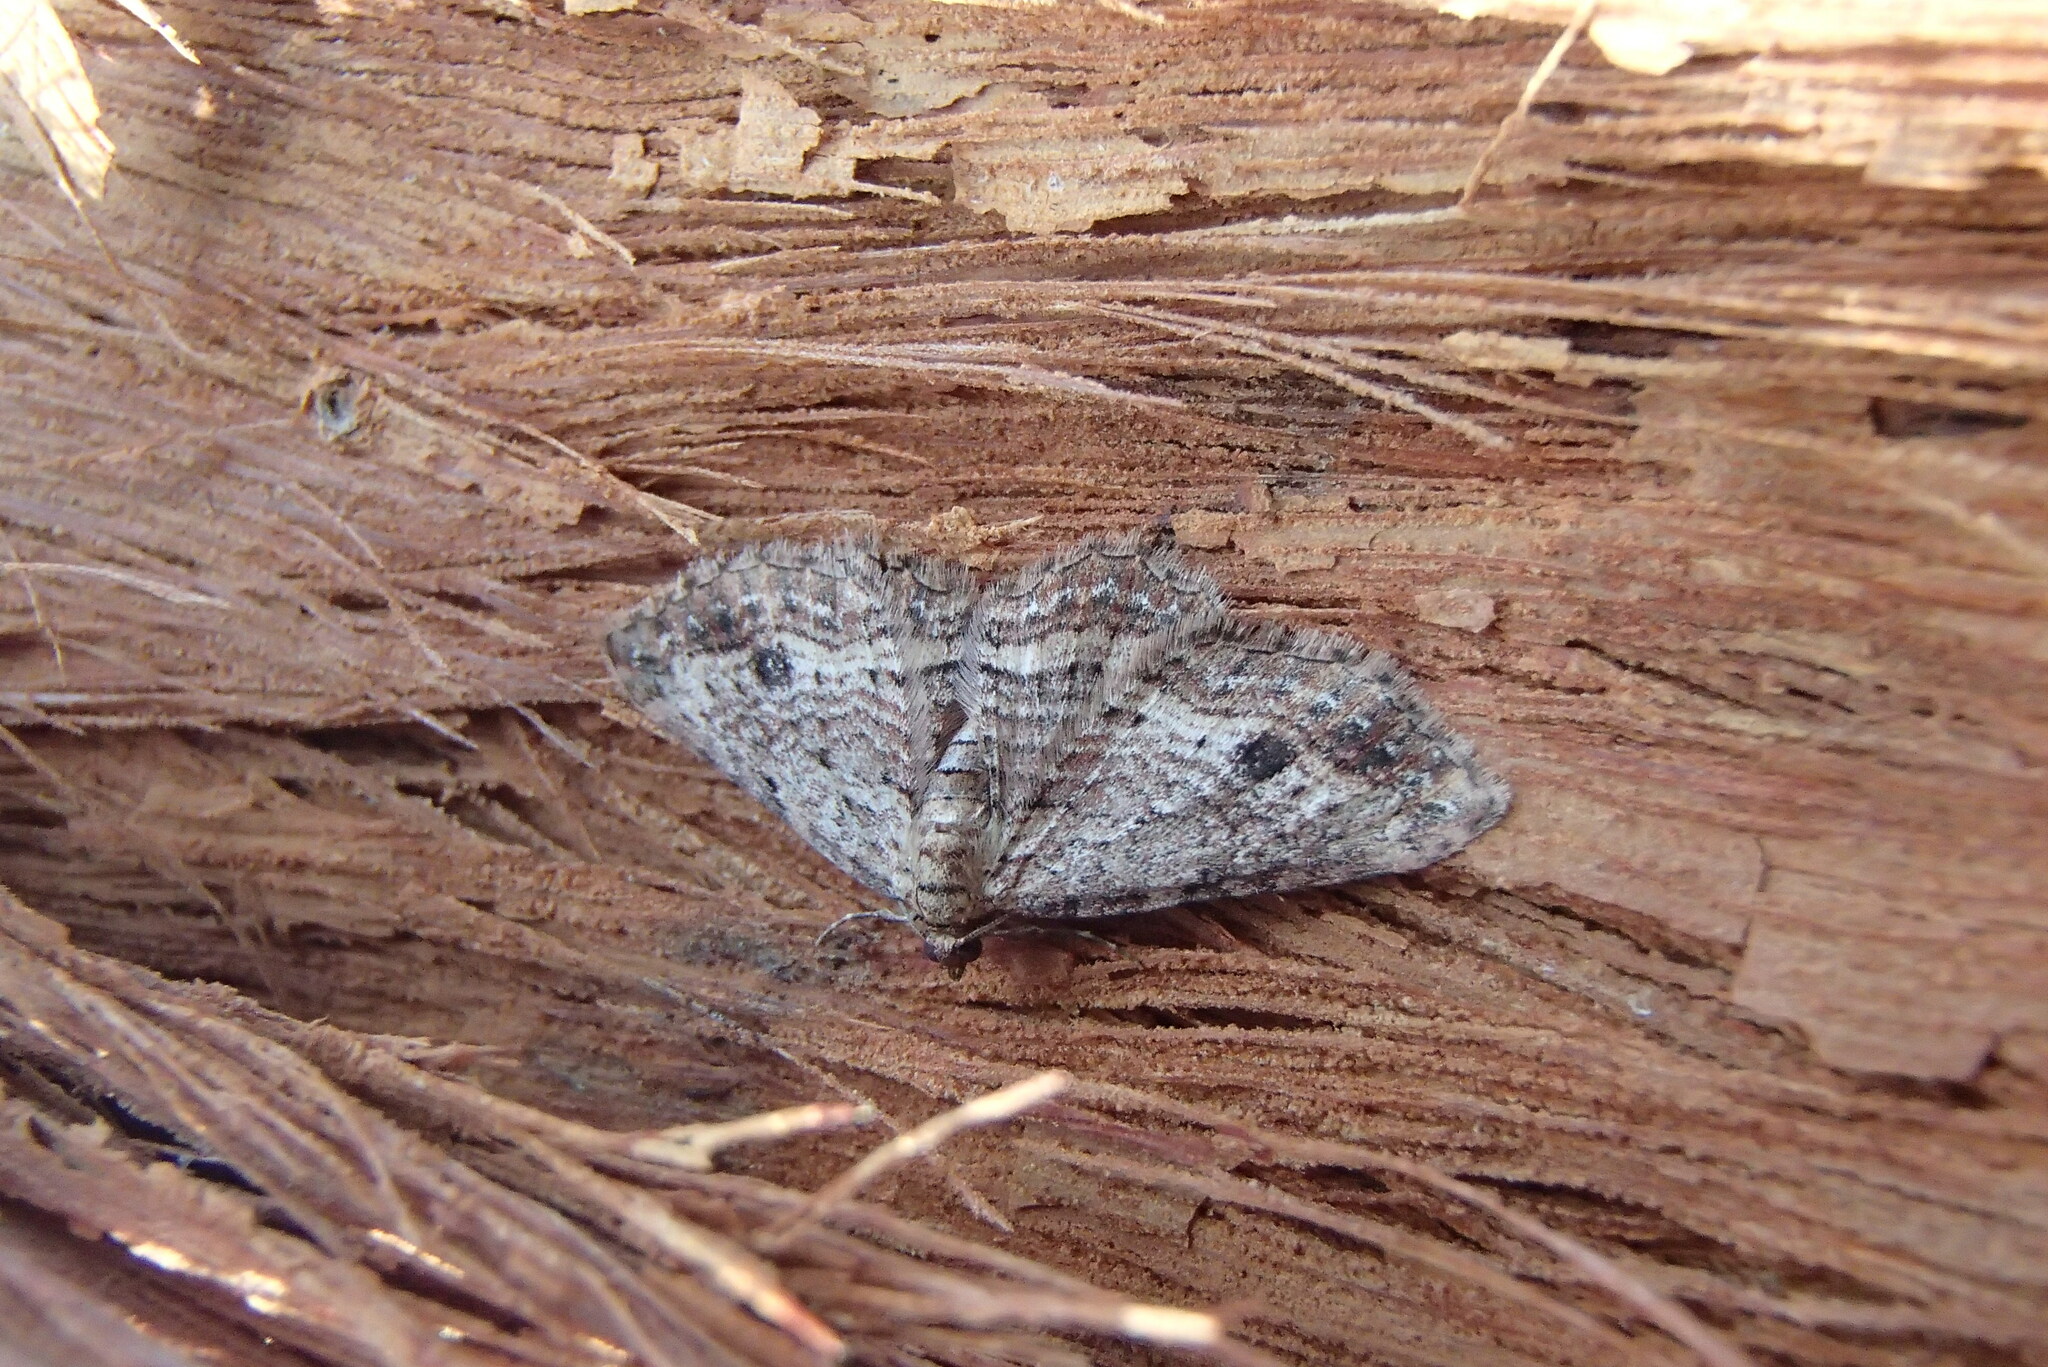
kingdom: Animalia
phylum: Arthropoda
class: Insecta
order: Lepidoptera
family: Geometridae
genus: Xanthorhoe
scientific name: Xanthorhoe anaspila
